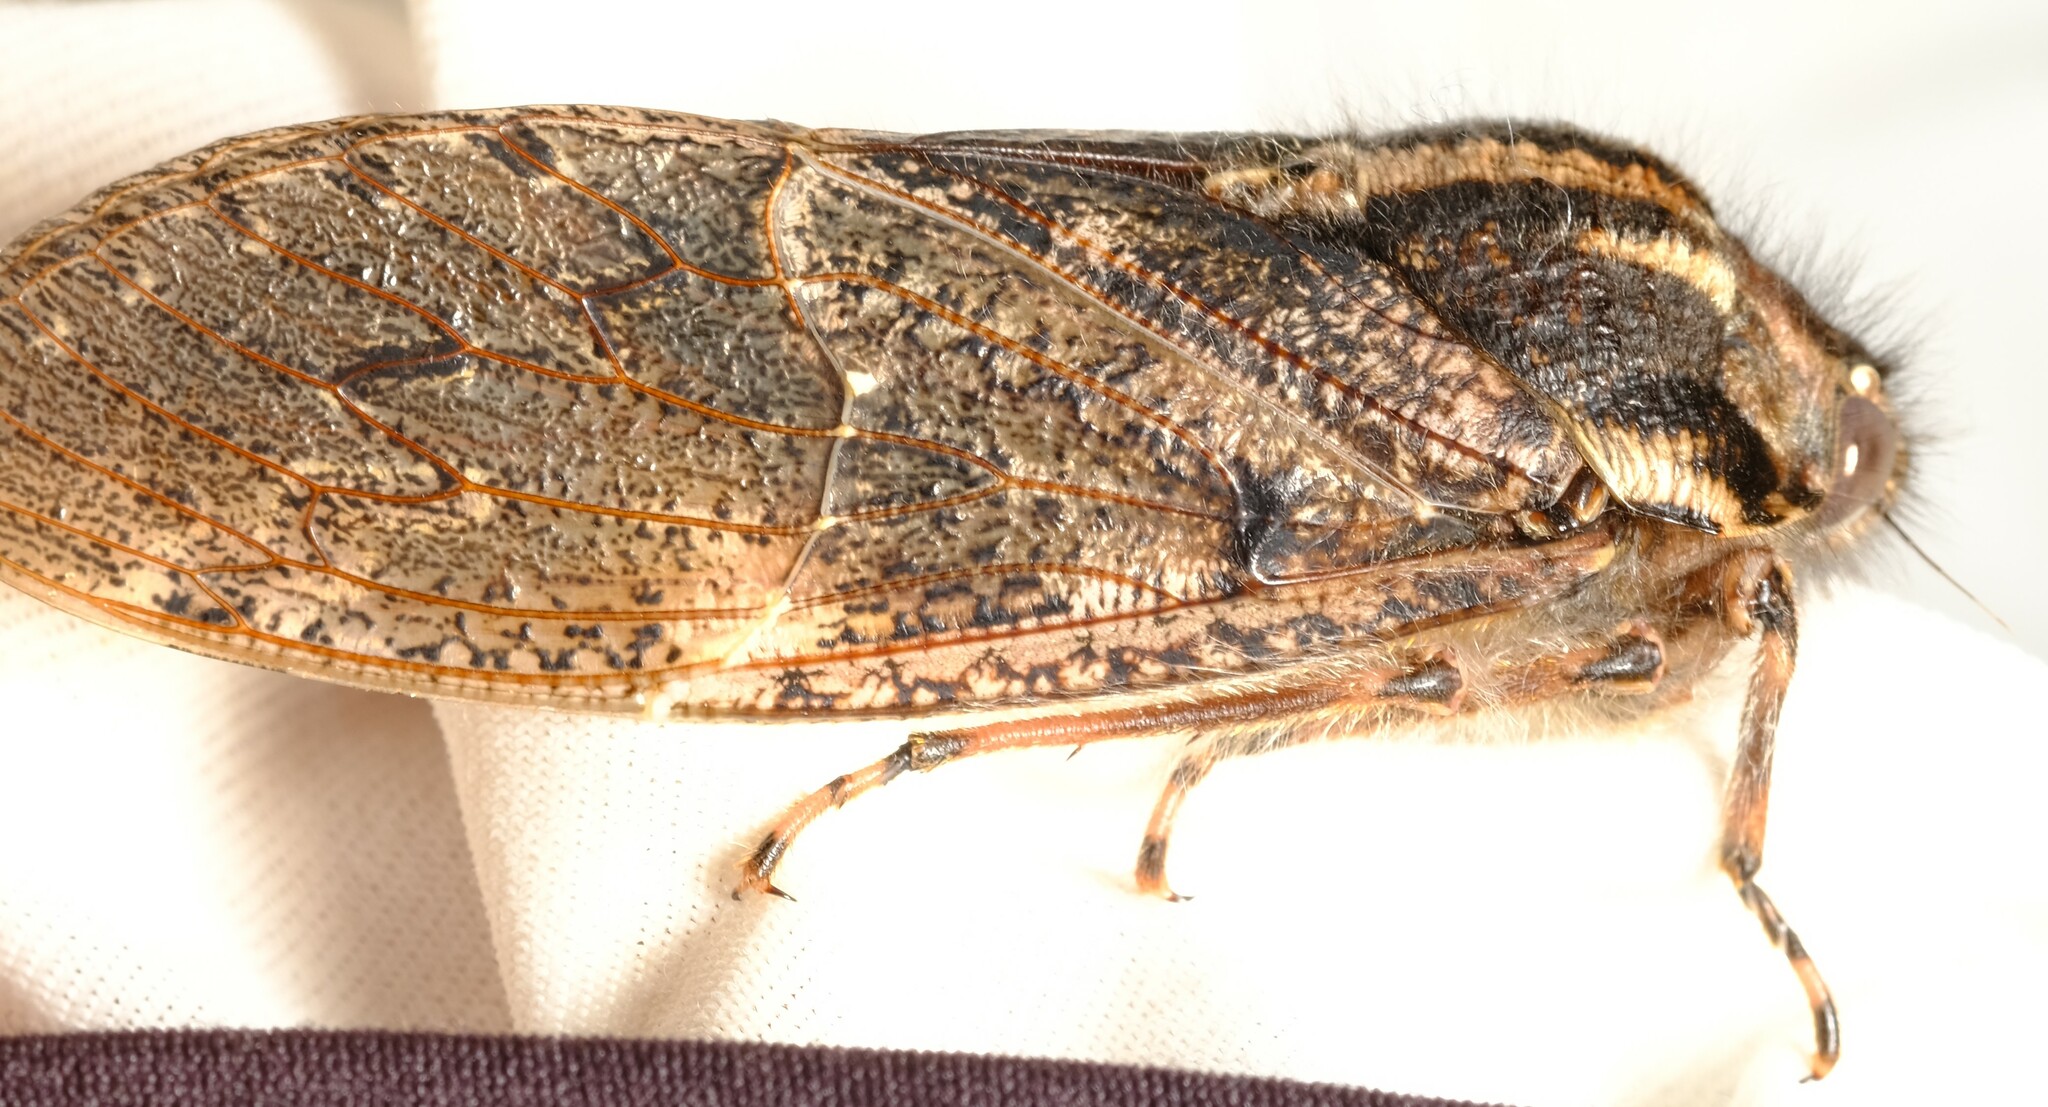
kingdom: Animalia
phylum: Arthropoda
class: Insecta
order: Hemiptera
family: Tettigarctidae
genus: Tettigarcta
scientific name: Tettigarcta crinita
